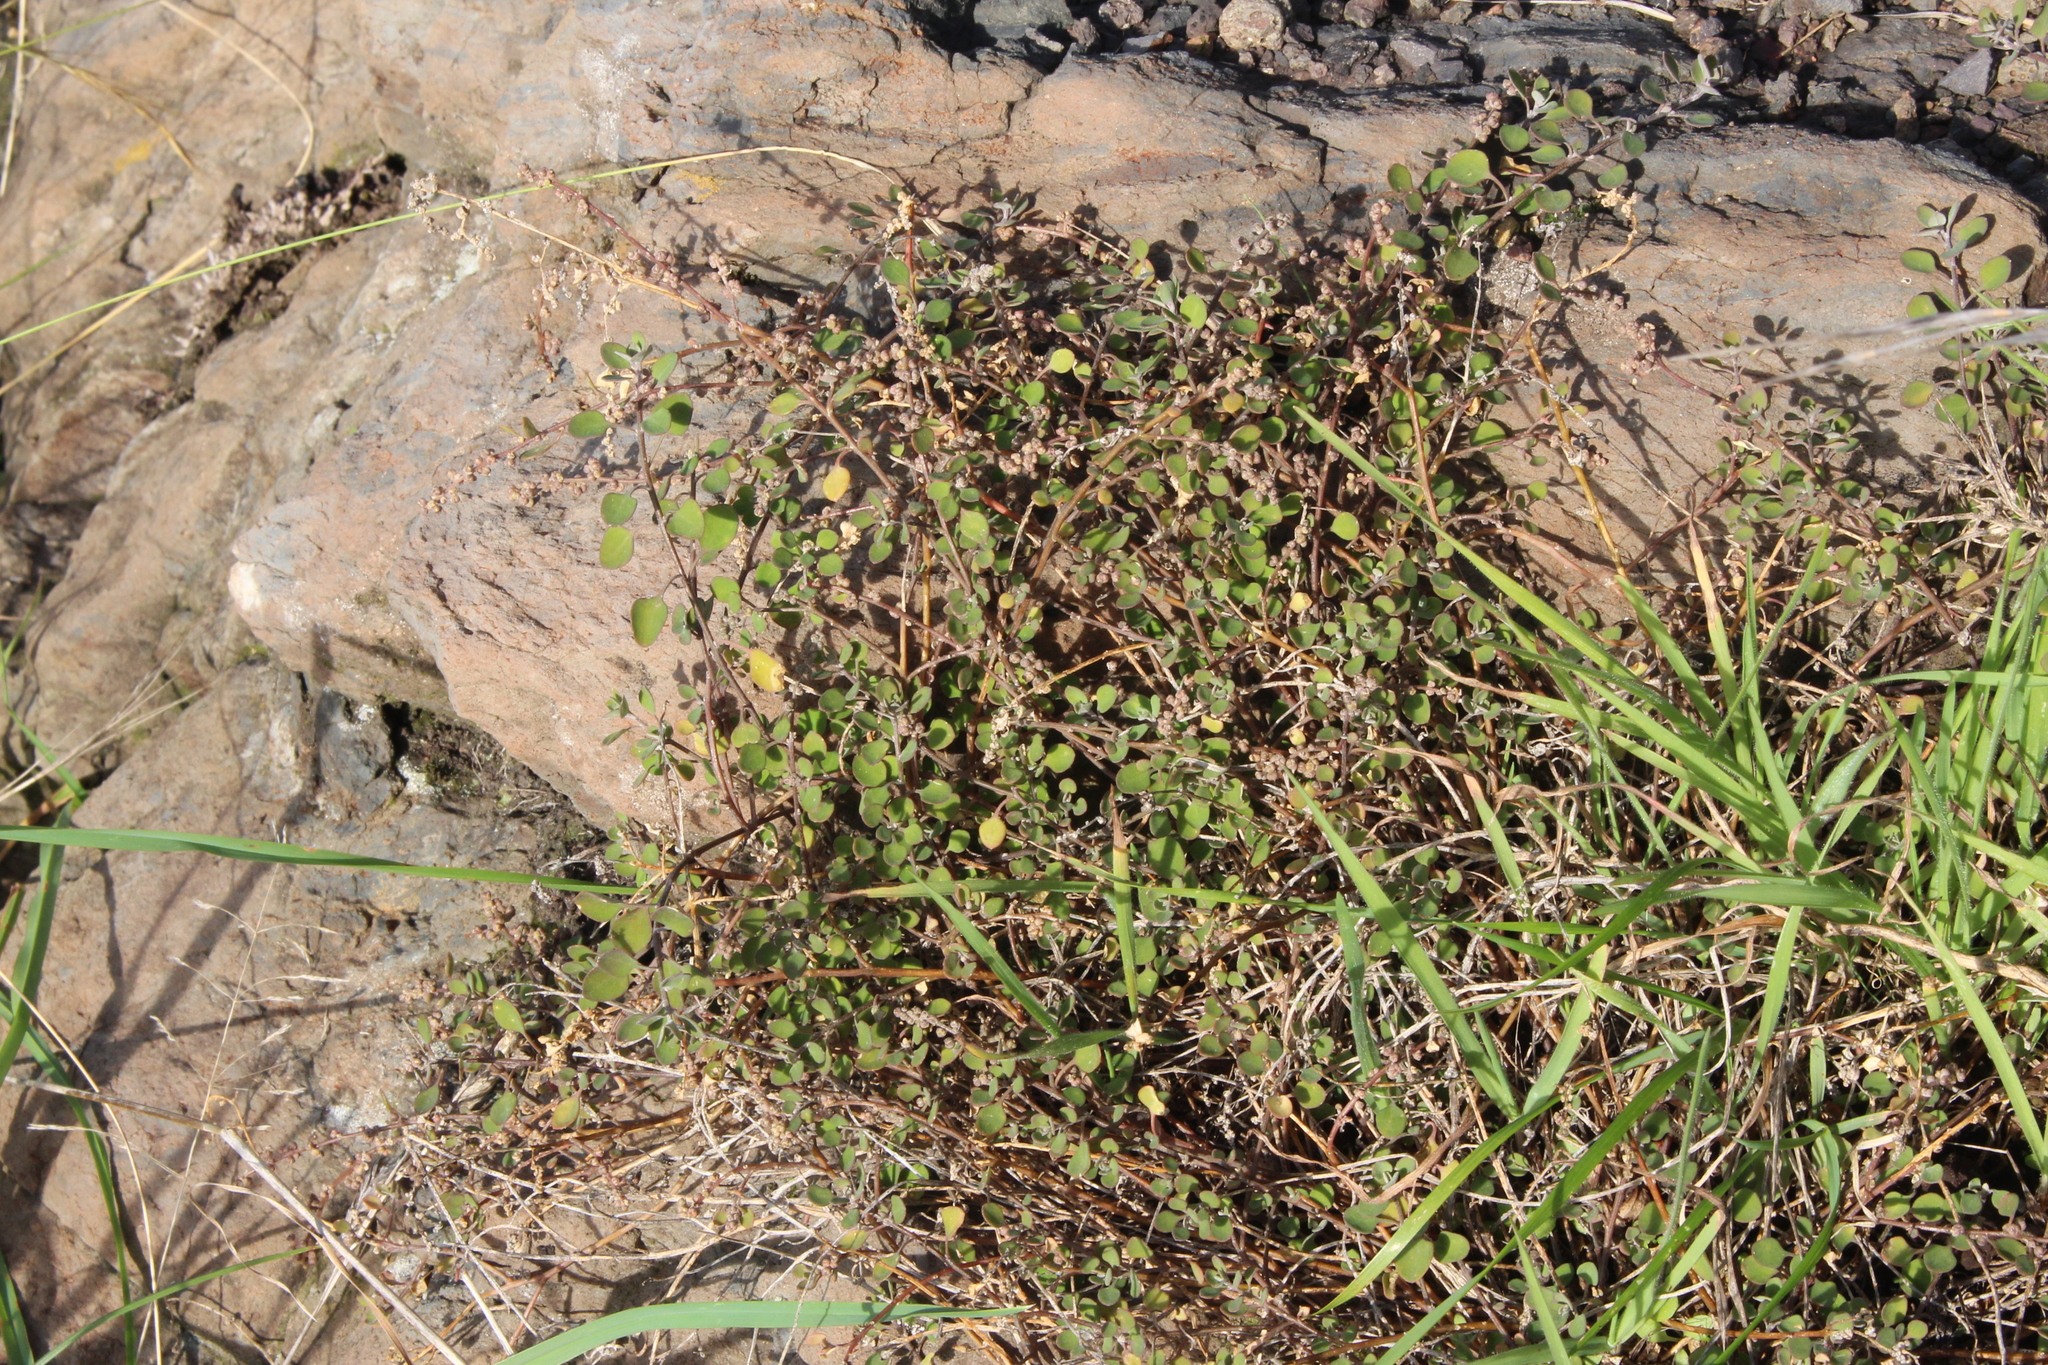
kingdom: Plantae
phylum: Tracheophyta
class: Magnoliopsida
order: Caryophyllales
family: Amaranthaceae
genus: Chenopodium
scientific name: Chenopodium allanii
